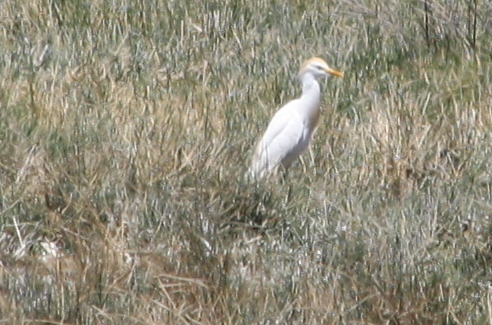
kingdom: Animalia
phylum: Chordata
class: Aves
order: Pelecaniformes
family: Ardeidae
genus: Bubulcus
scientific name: Bubulcus ibis
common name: Cattle egret
